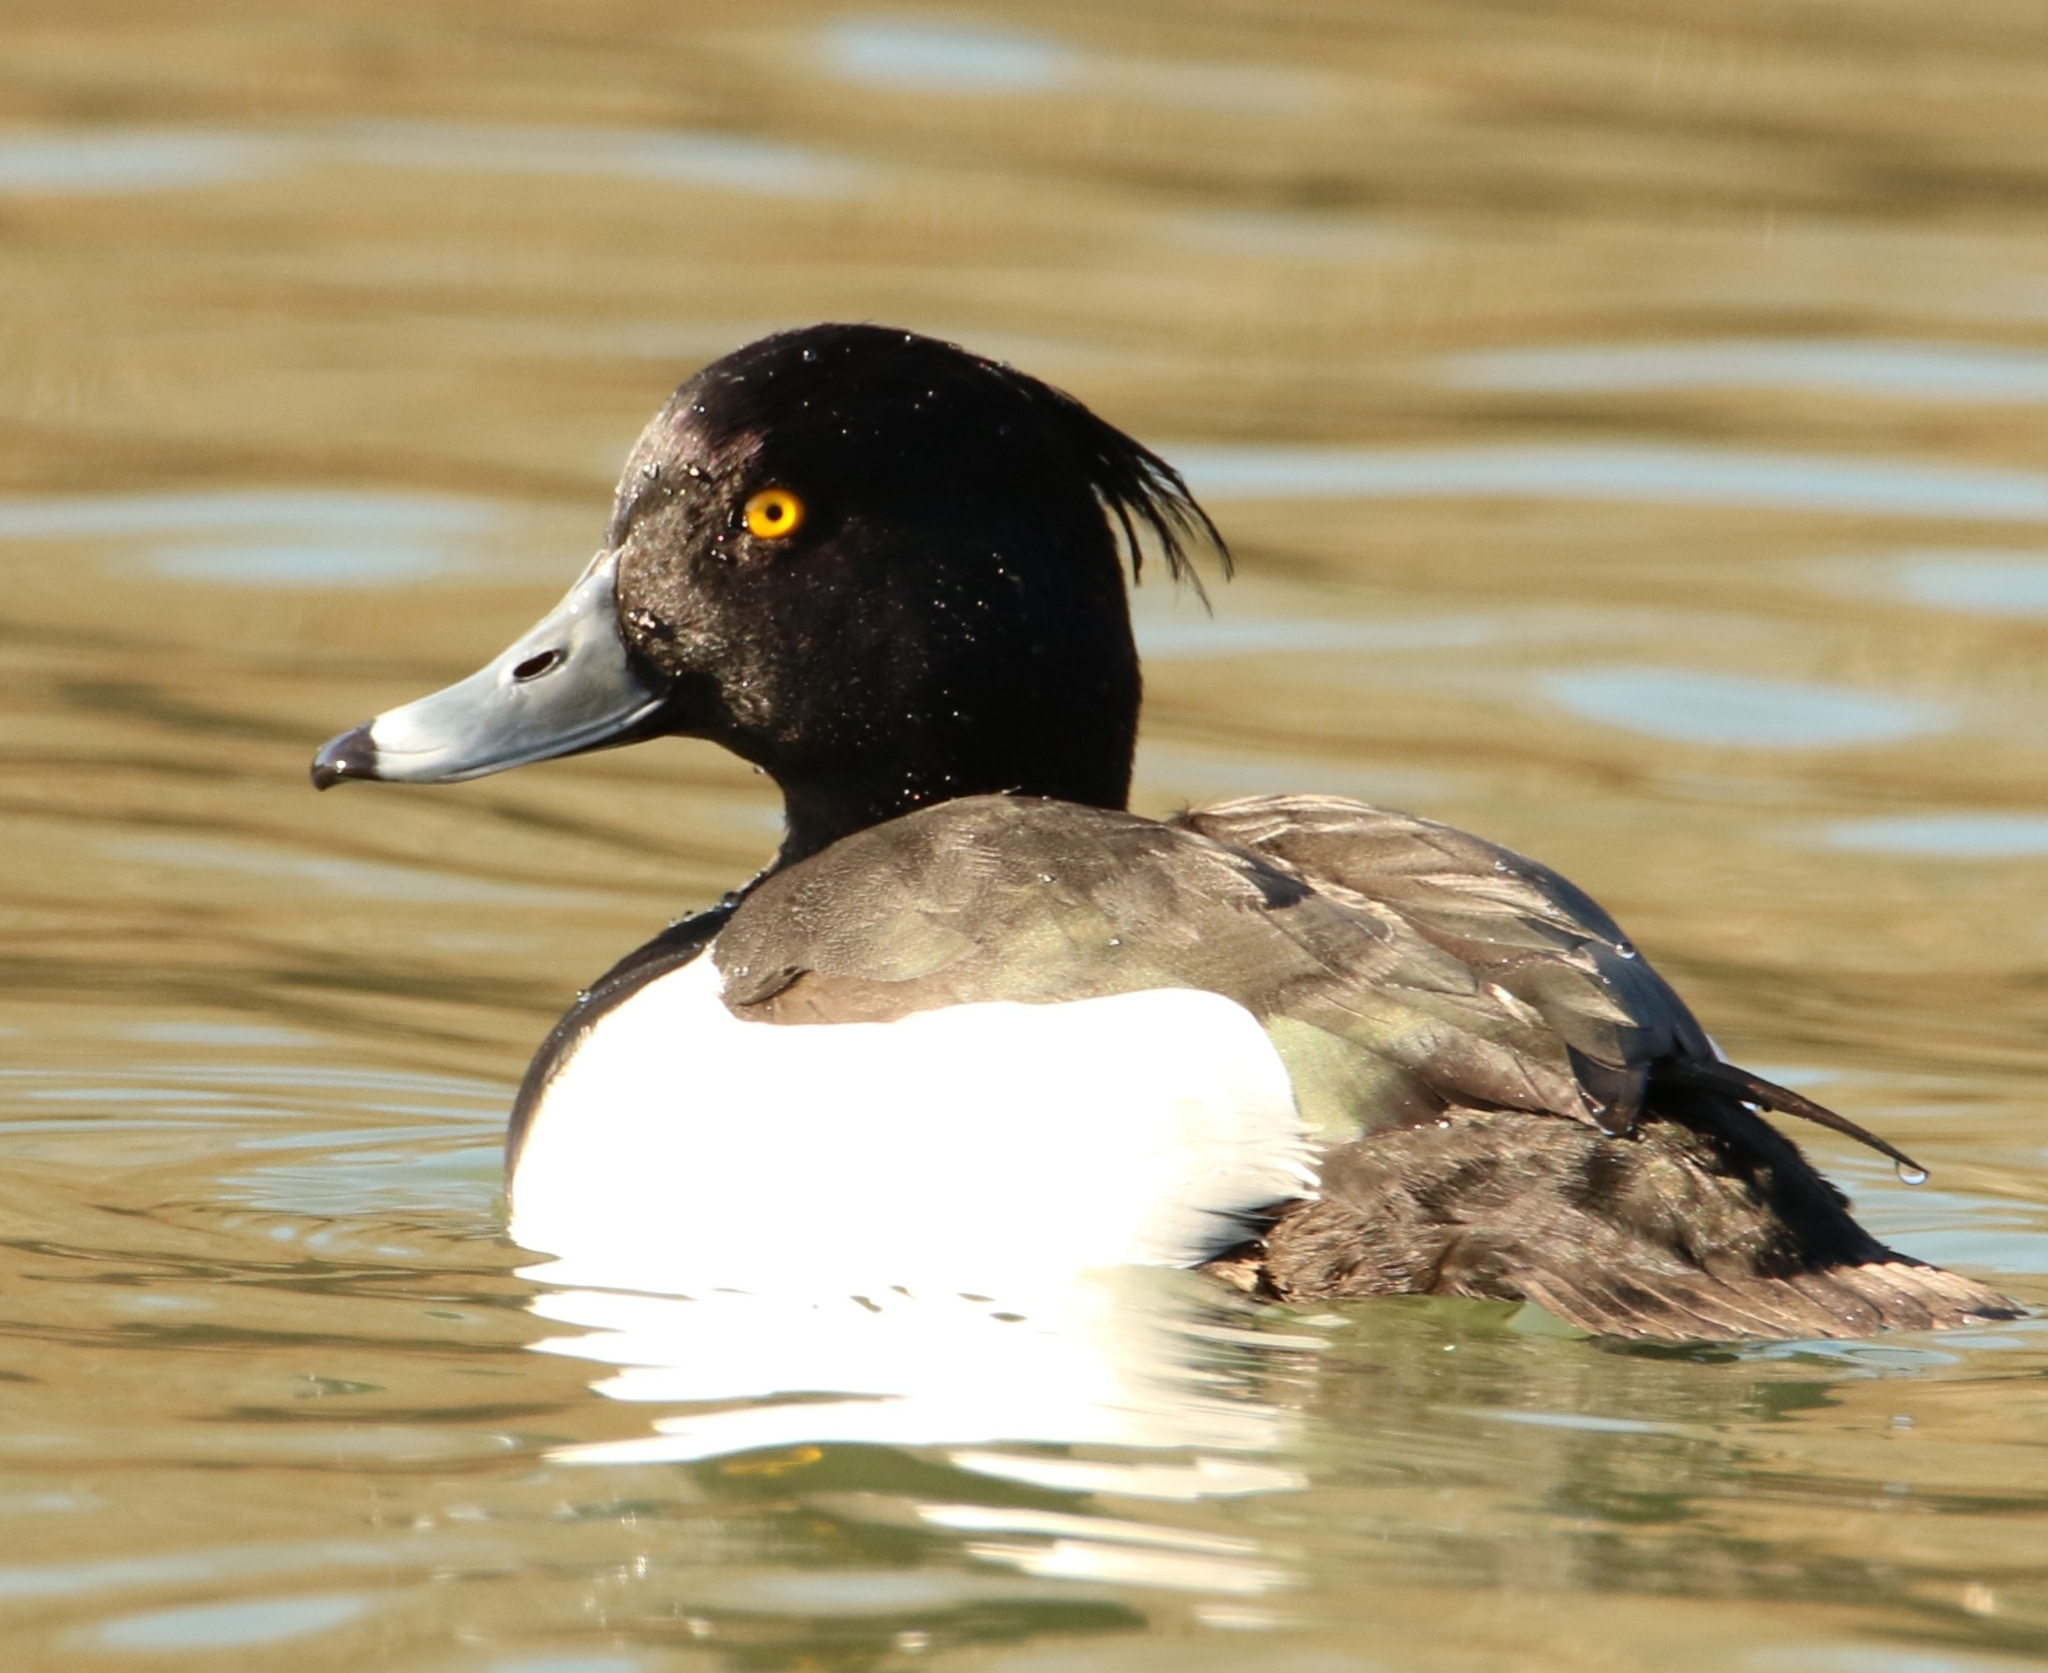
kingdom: Animalia
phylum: Chordata
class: Aves
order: Anseriformes
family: Anatidae
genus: Aythya
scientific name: Aythya fuligula
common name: Tufted duck
